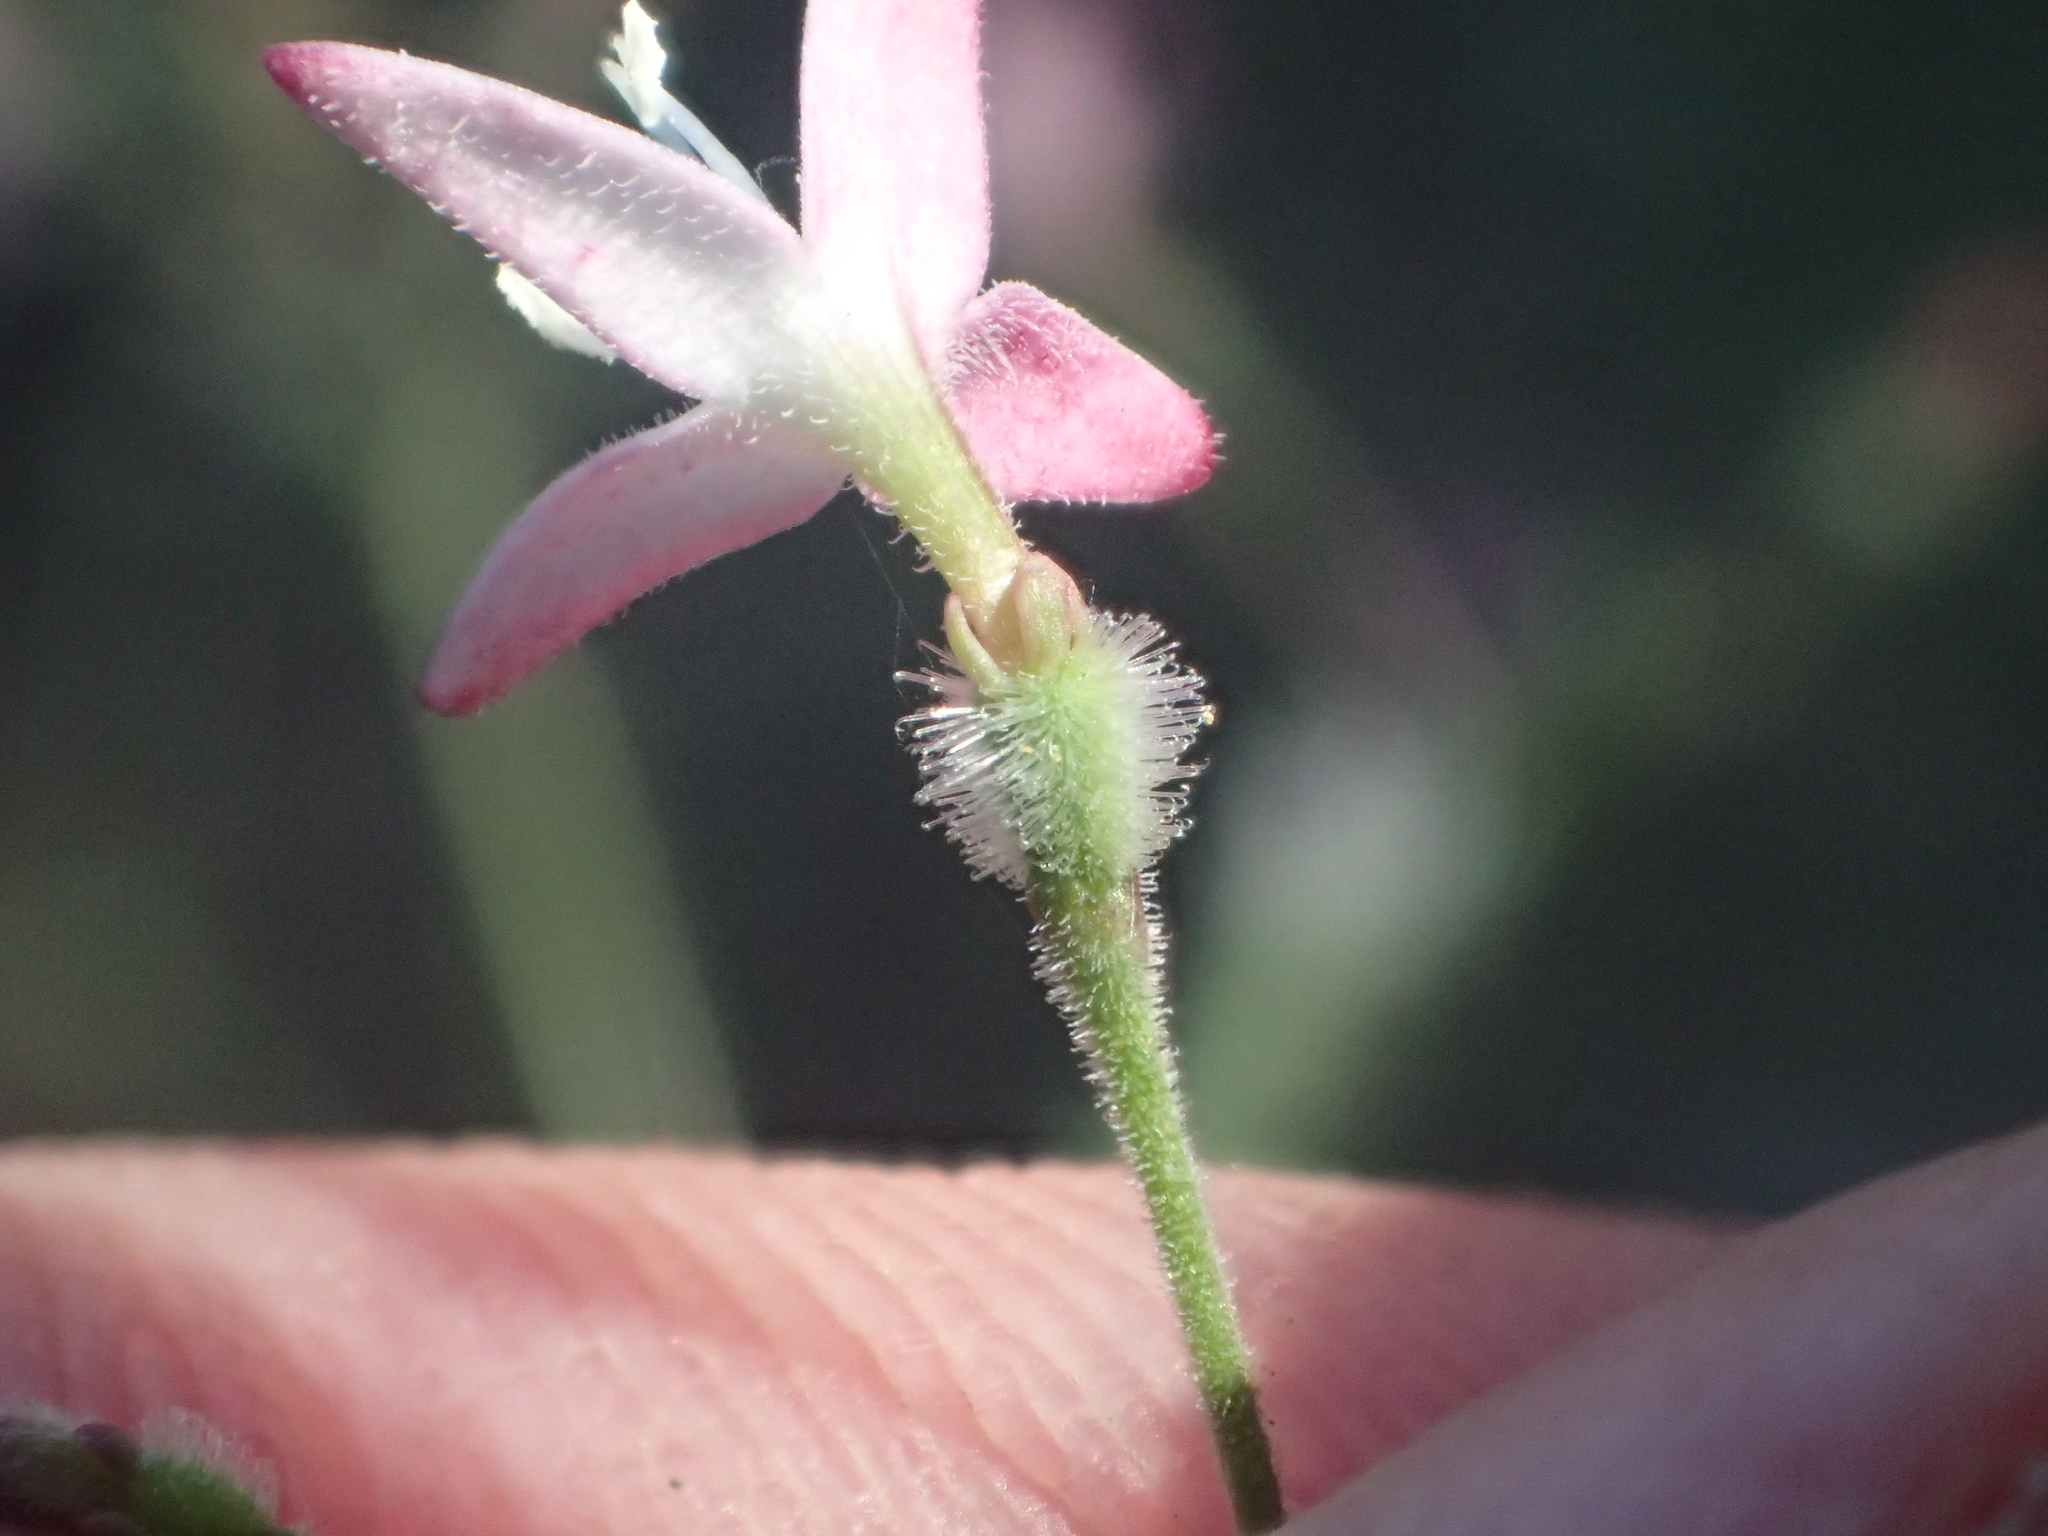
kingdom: Plantae
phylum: Tracheophyta
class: Magnoliopsida
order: Gentianales
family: Rubiaceae
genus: Kelloggia
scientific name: Kelloggia galioides
